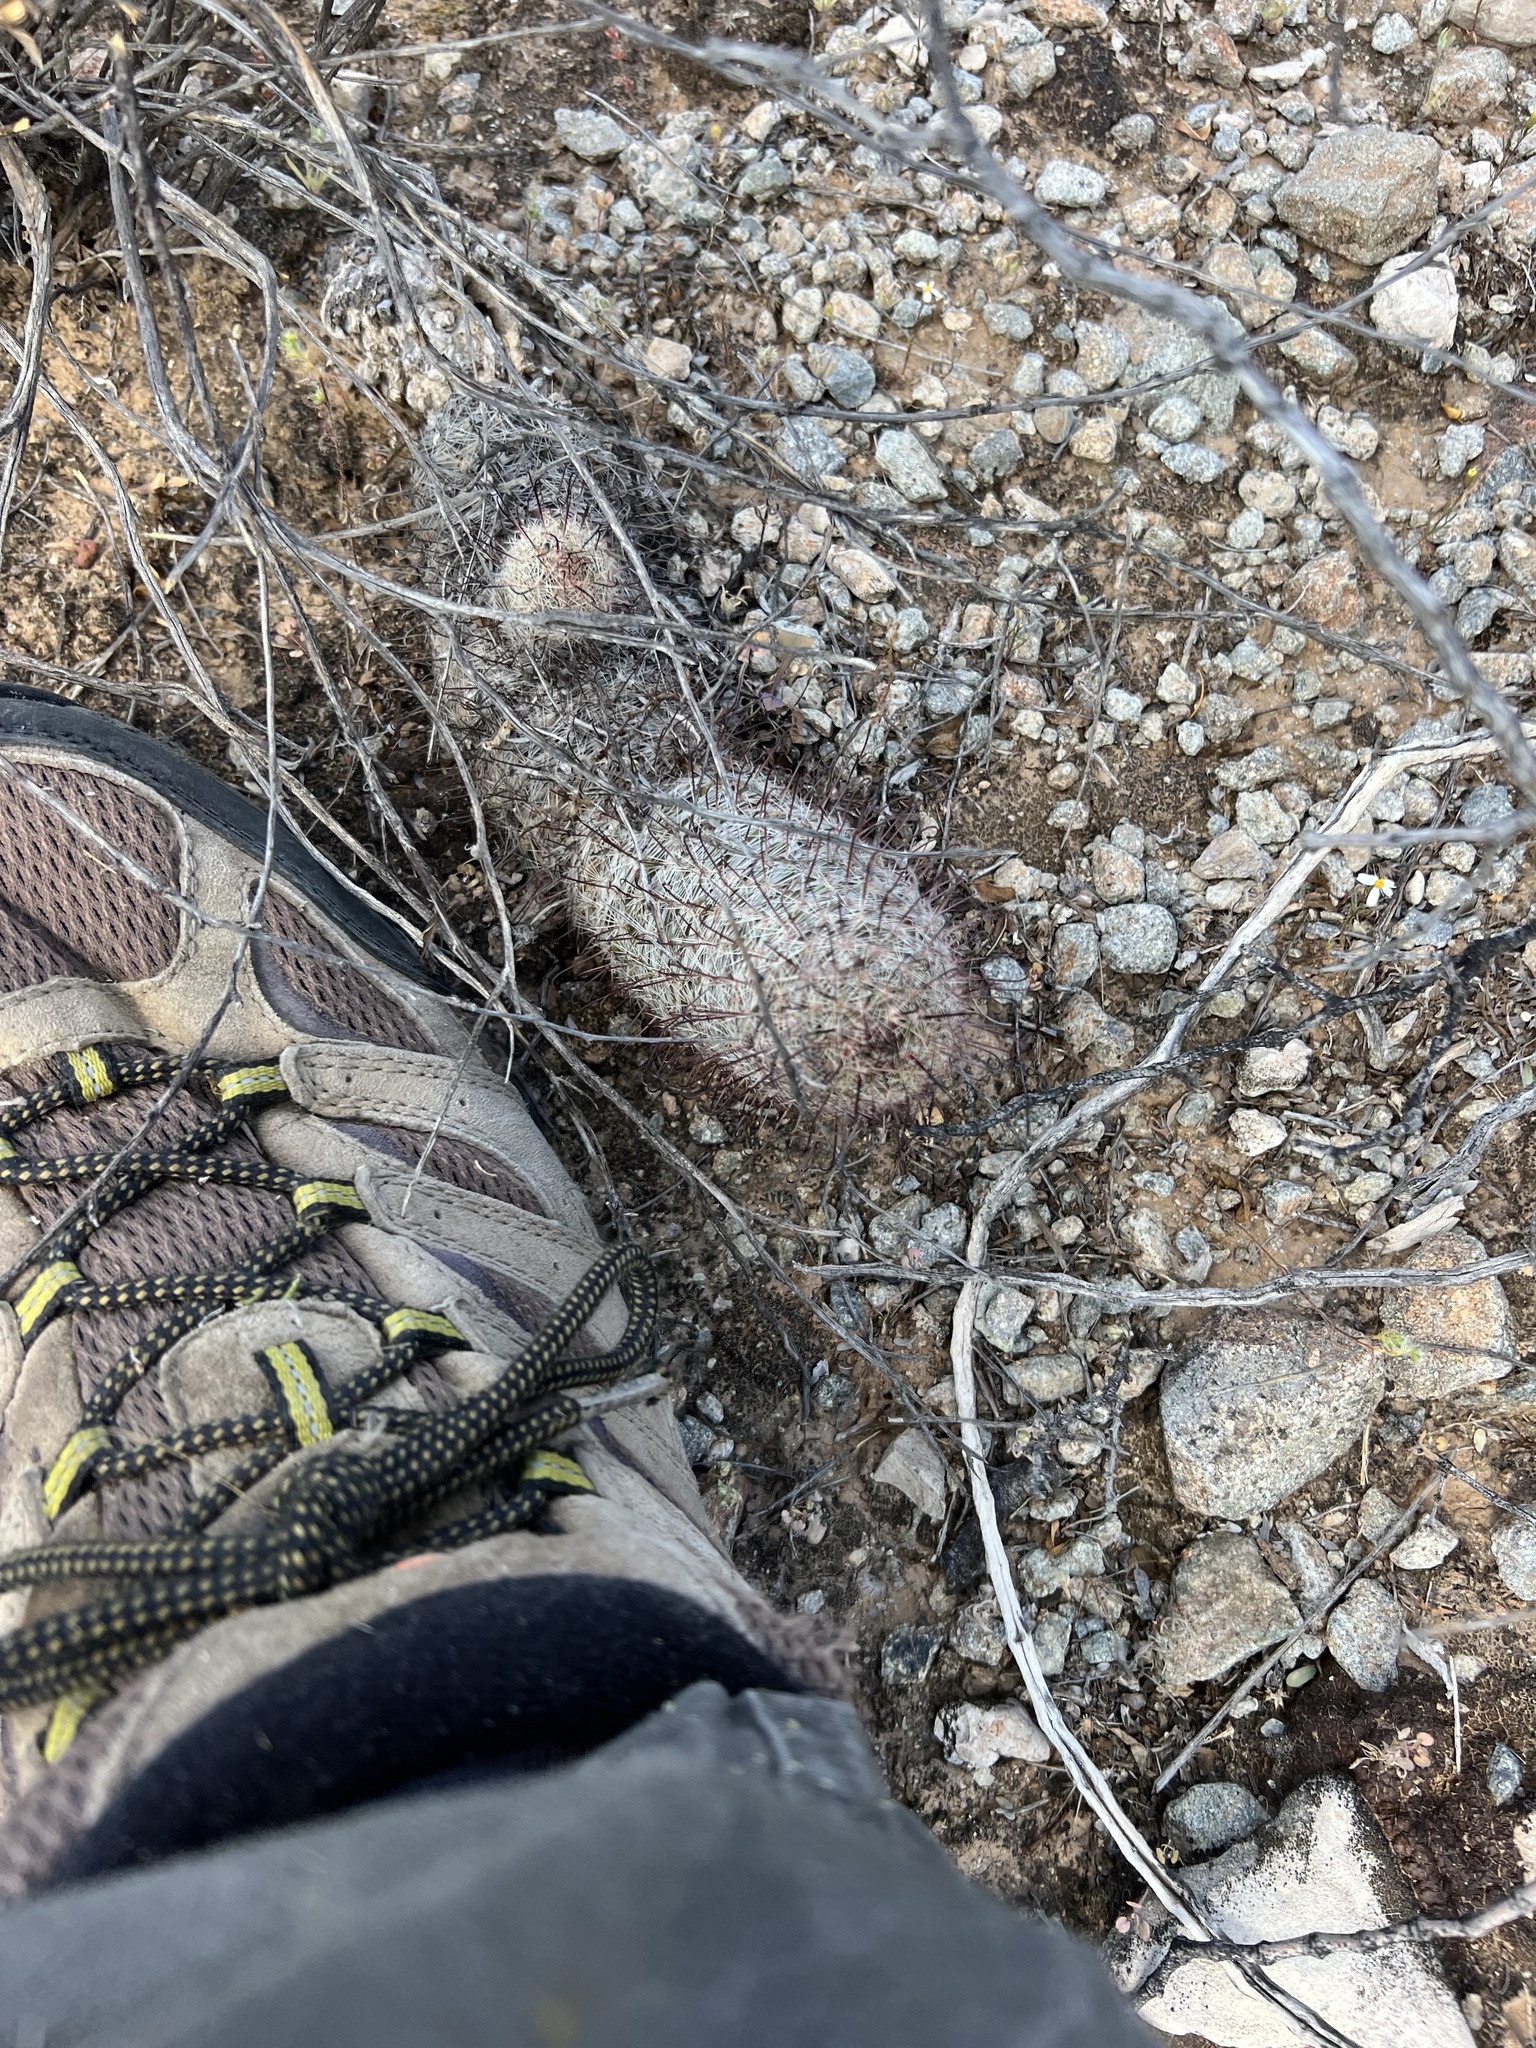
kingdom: Plantae
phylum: Tracheophyta
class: Magnoliopsida
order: Caryophyllales
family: Cactaceae
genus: Cochemiea
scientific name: Cochemiea grahamii
